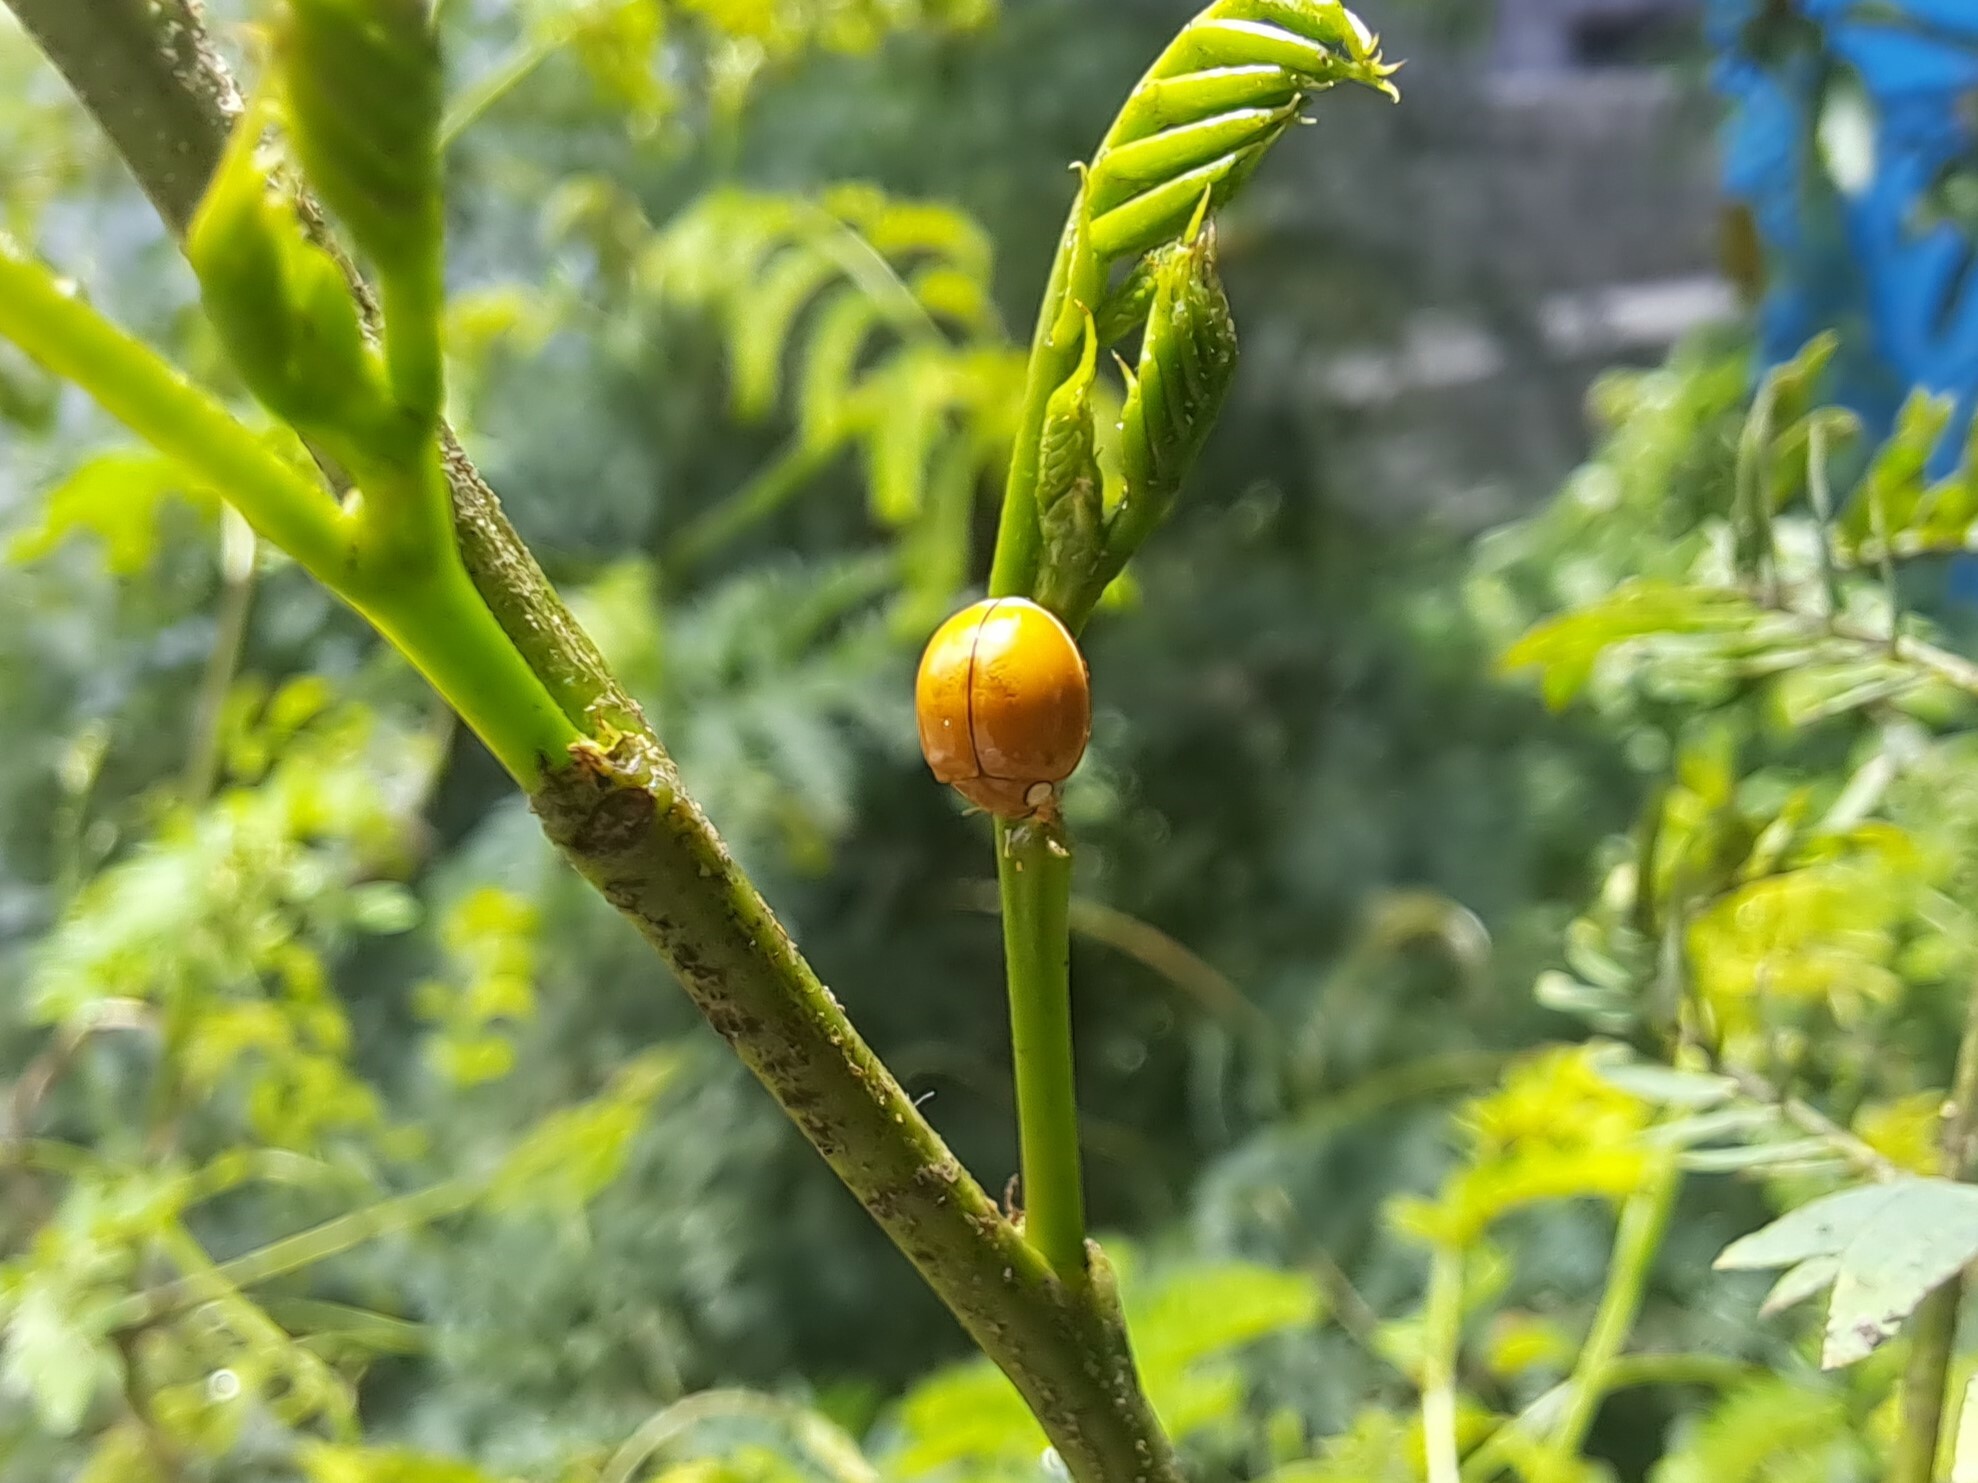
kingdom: Animalia
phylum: Arthropoda
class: Insecta
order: Coleoptera
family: Coccinellidae
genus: Paraneda
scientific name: Paraneda
